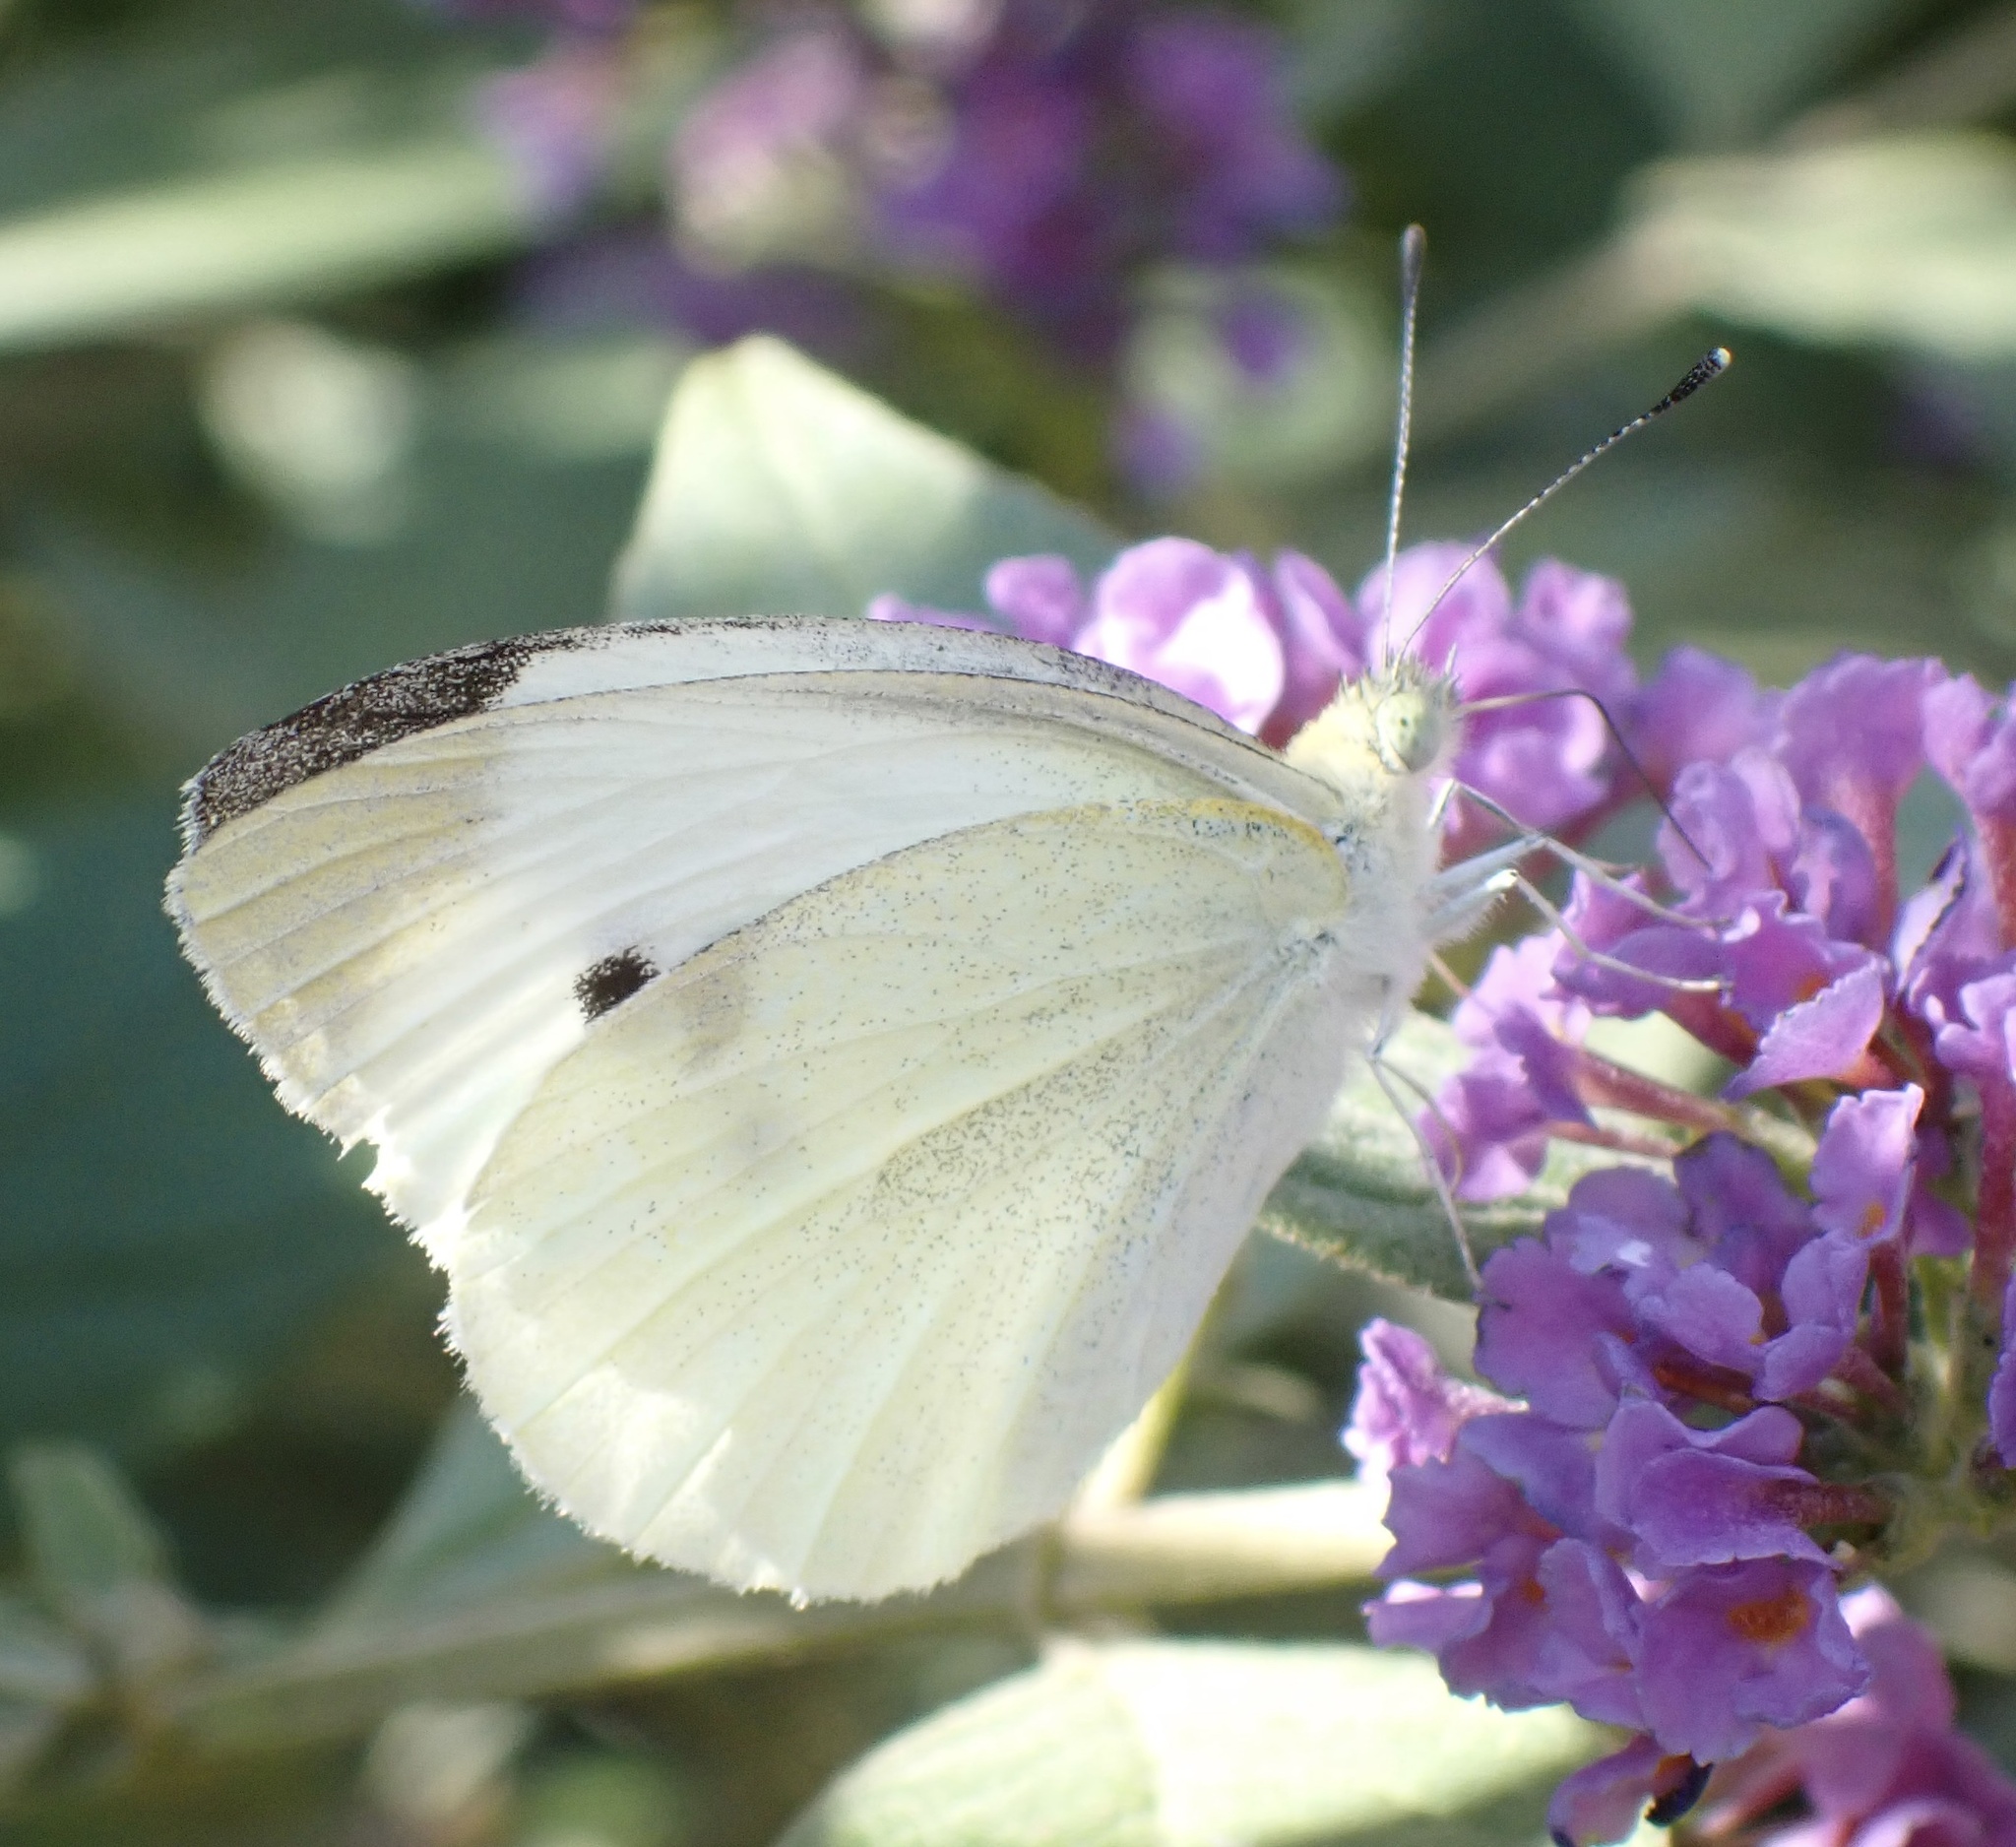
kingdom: Animalia
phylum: Arthropoda
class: Insecta
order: Lepidoptera
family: Pieridae
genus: Pieris
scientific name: Pieris rapae
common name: Small white
